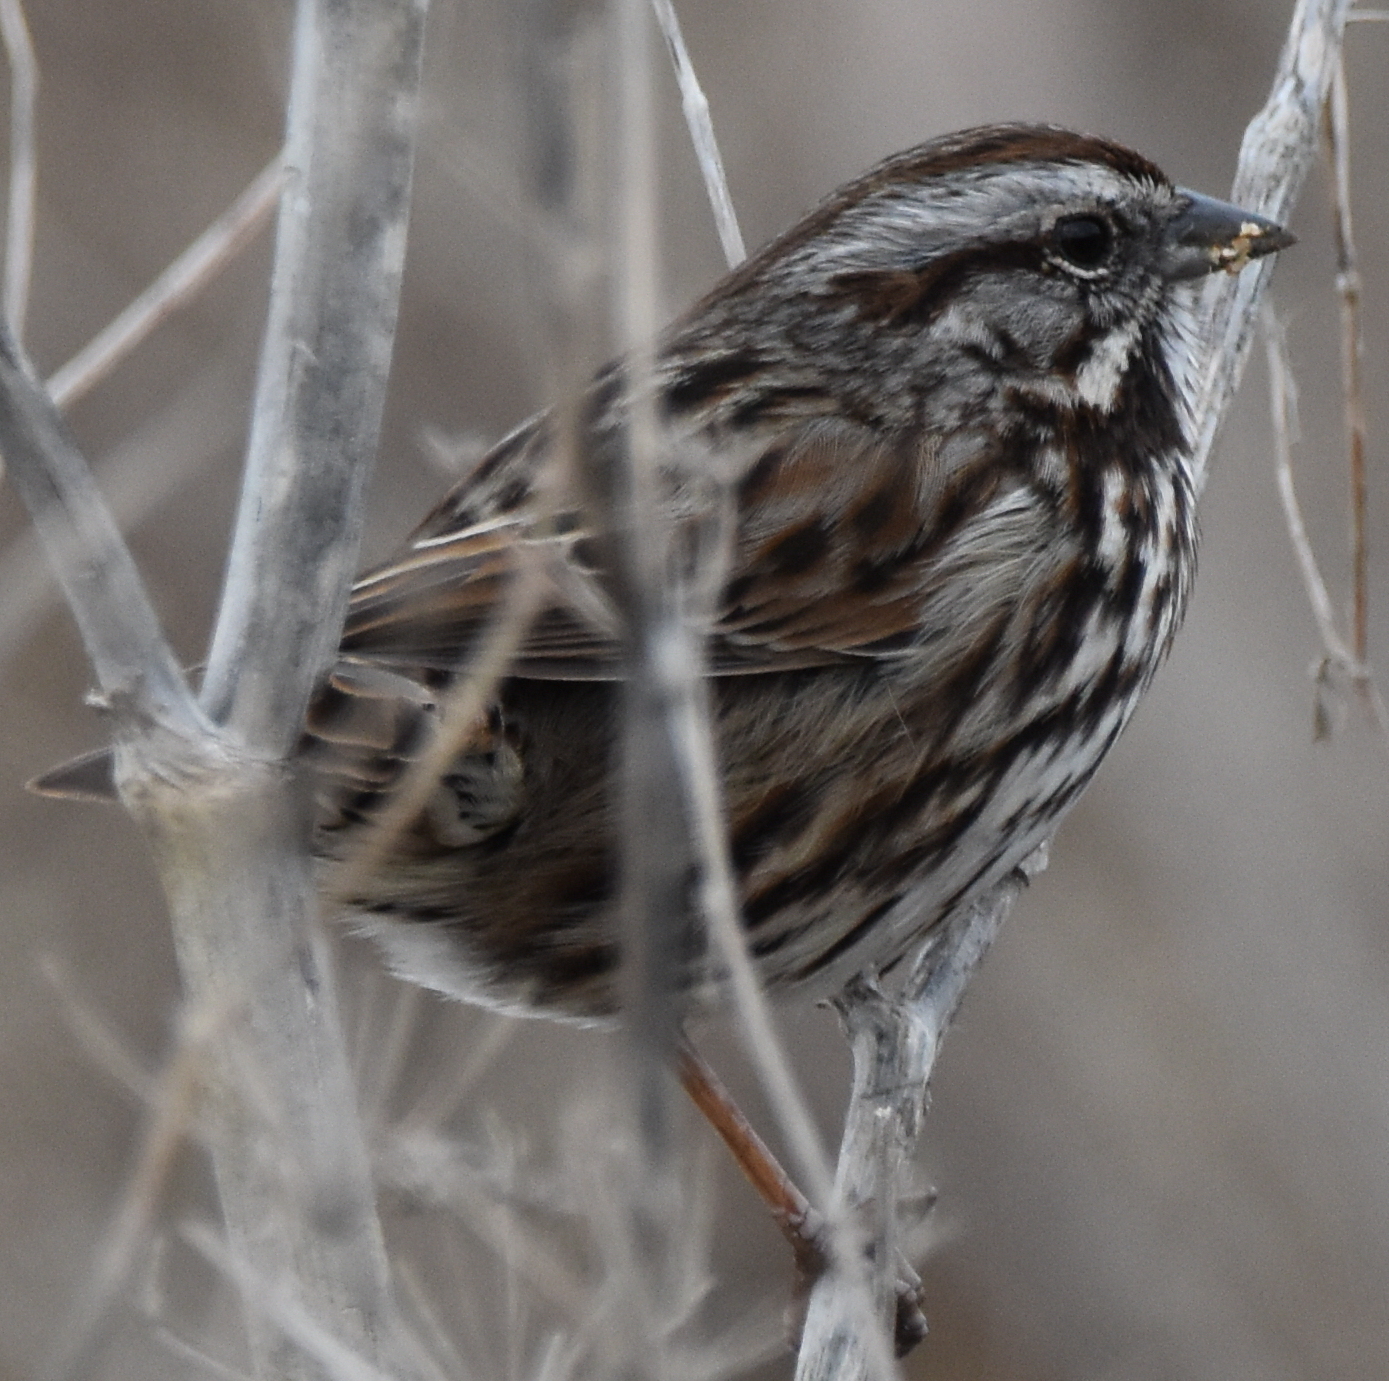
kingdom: Animalia
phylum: Chordata
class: Aves
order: Passeriformes
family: Passerellidae
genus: Melospiza
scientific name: Melospiza melodia
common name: Song sparrow
